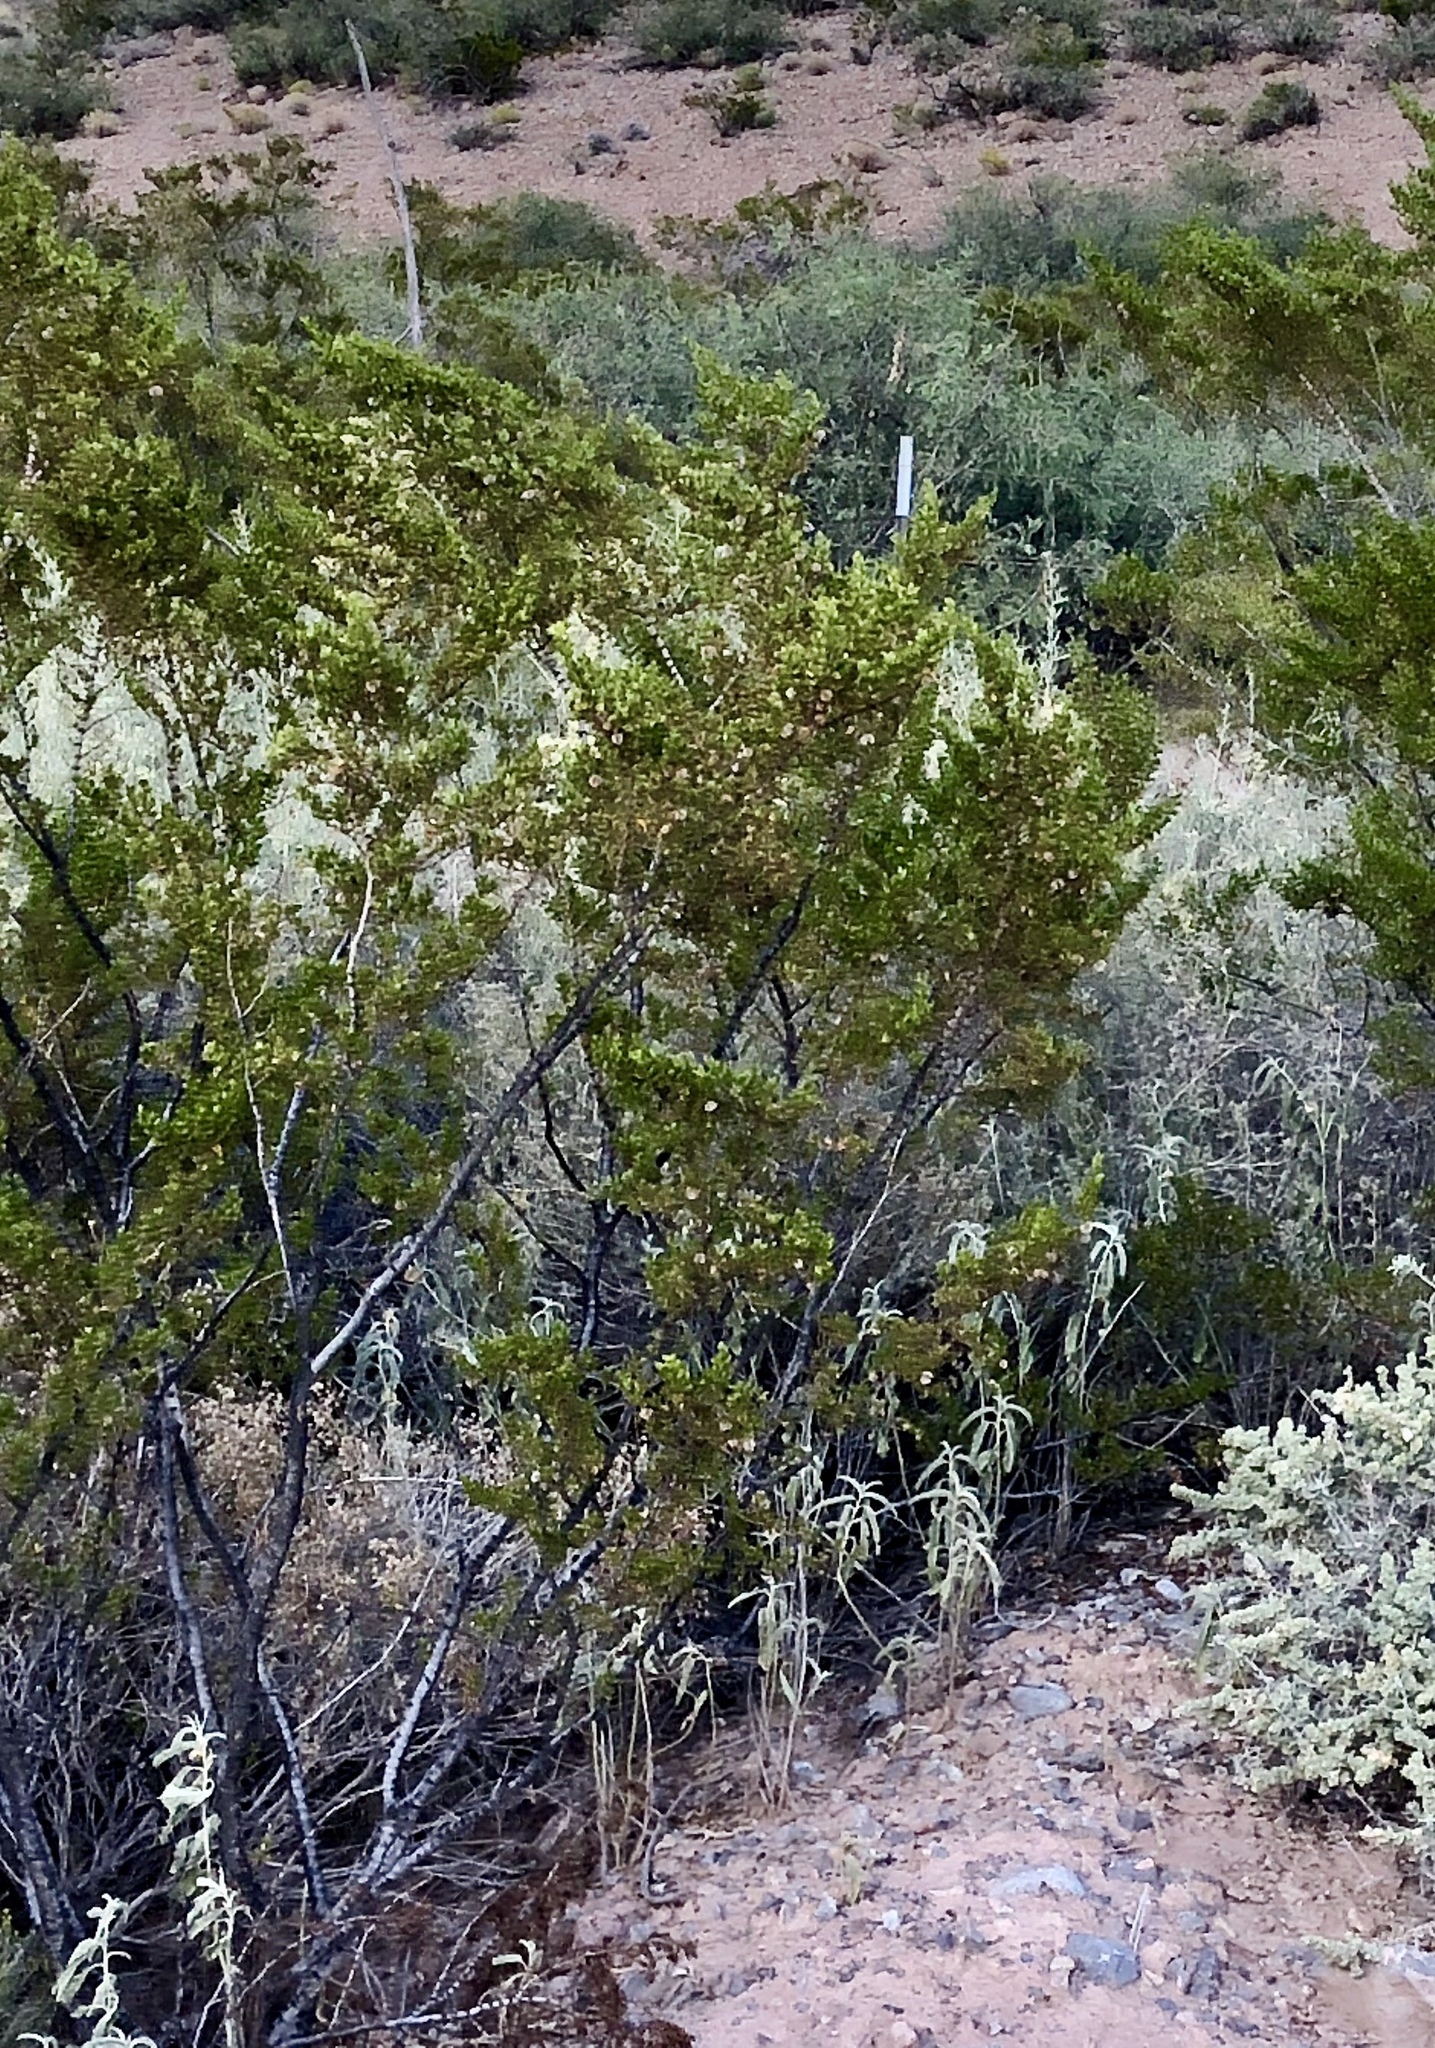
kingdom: Plantae
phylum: Tracheophyta
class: Magnoliopsida
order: Zygophyllales
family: Zygophyllaceae
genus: Larrea
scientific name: Larrea tridentata
